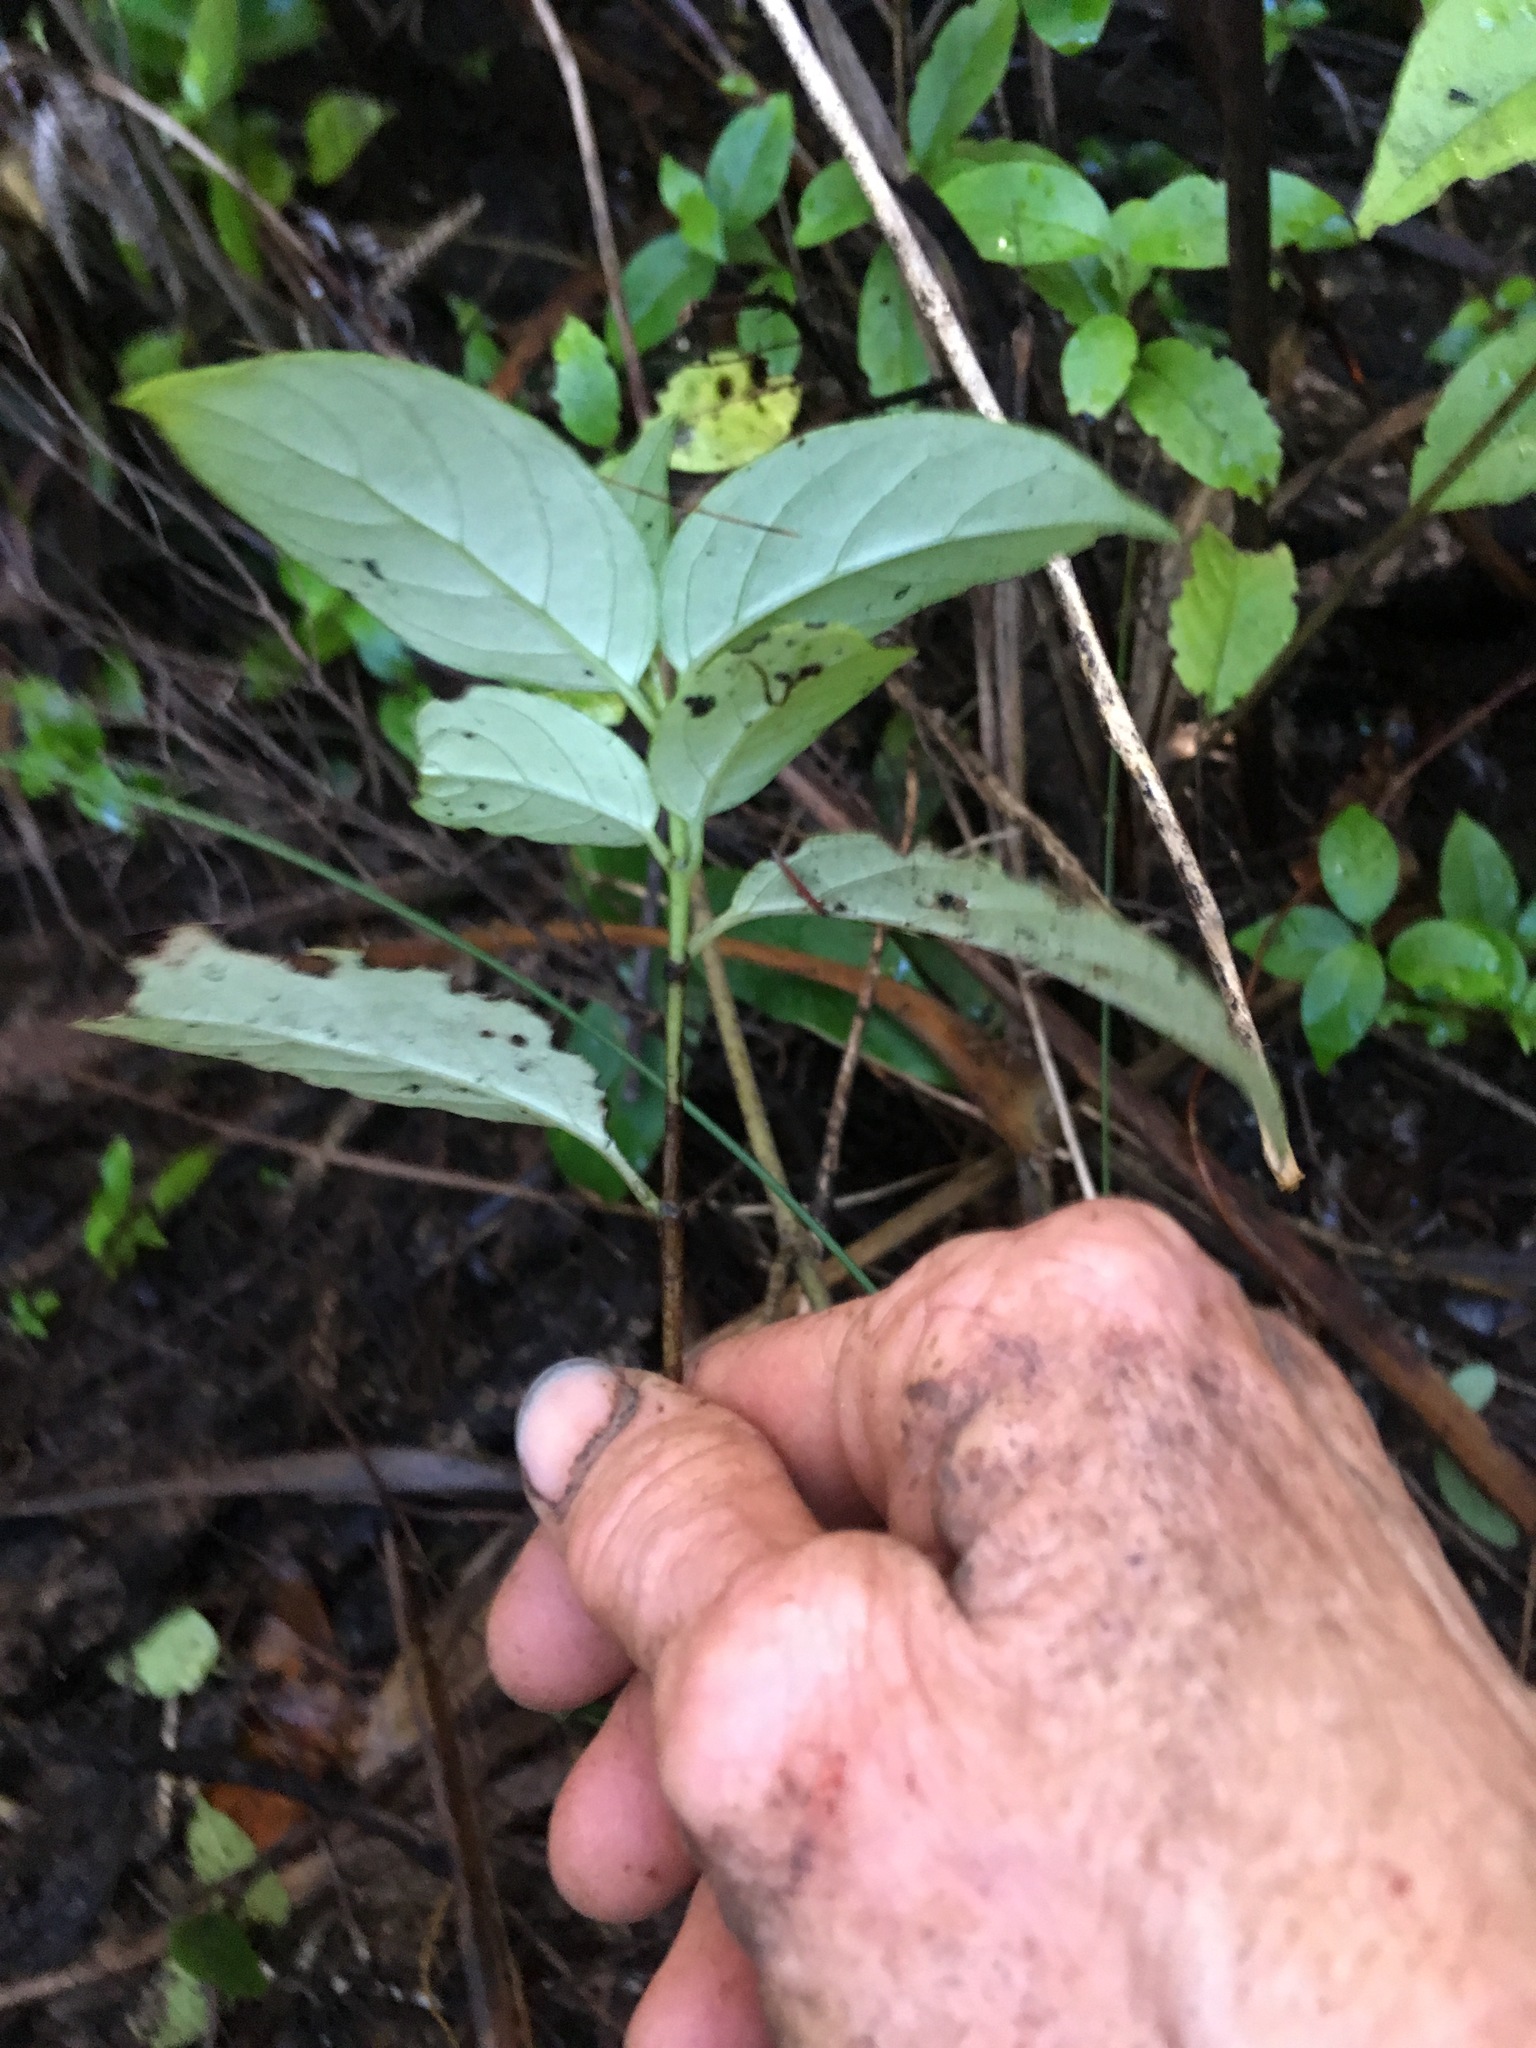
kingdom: Plantae
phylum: Tracheophyta
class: Magnoliopsida
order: Gentianales
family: Loganiaceae
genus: Geniostoma
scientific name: Geniostoma ligustrifolium
